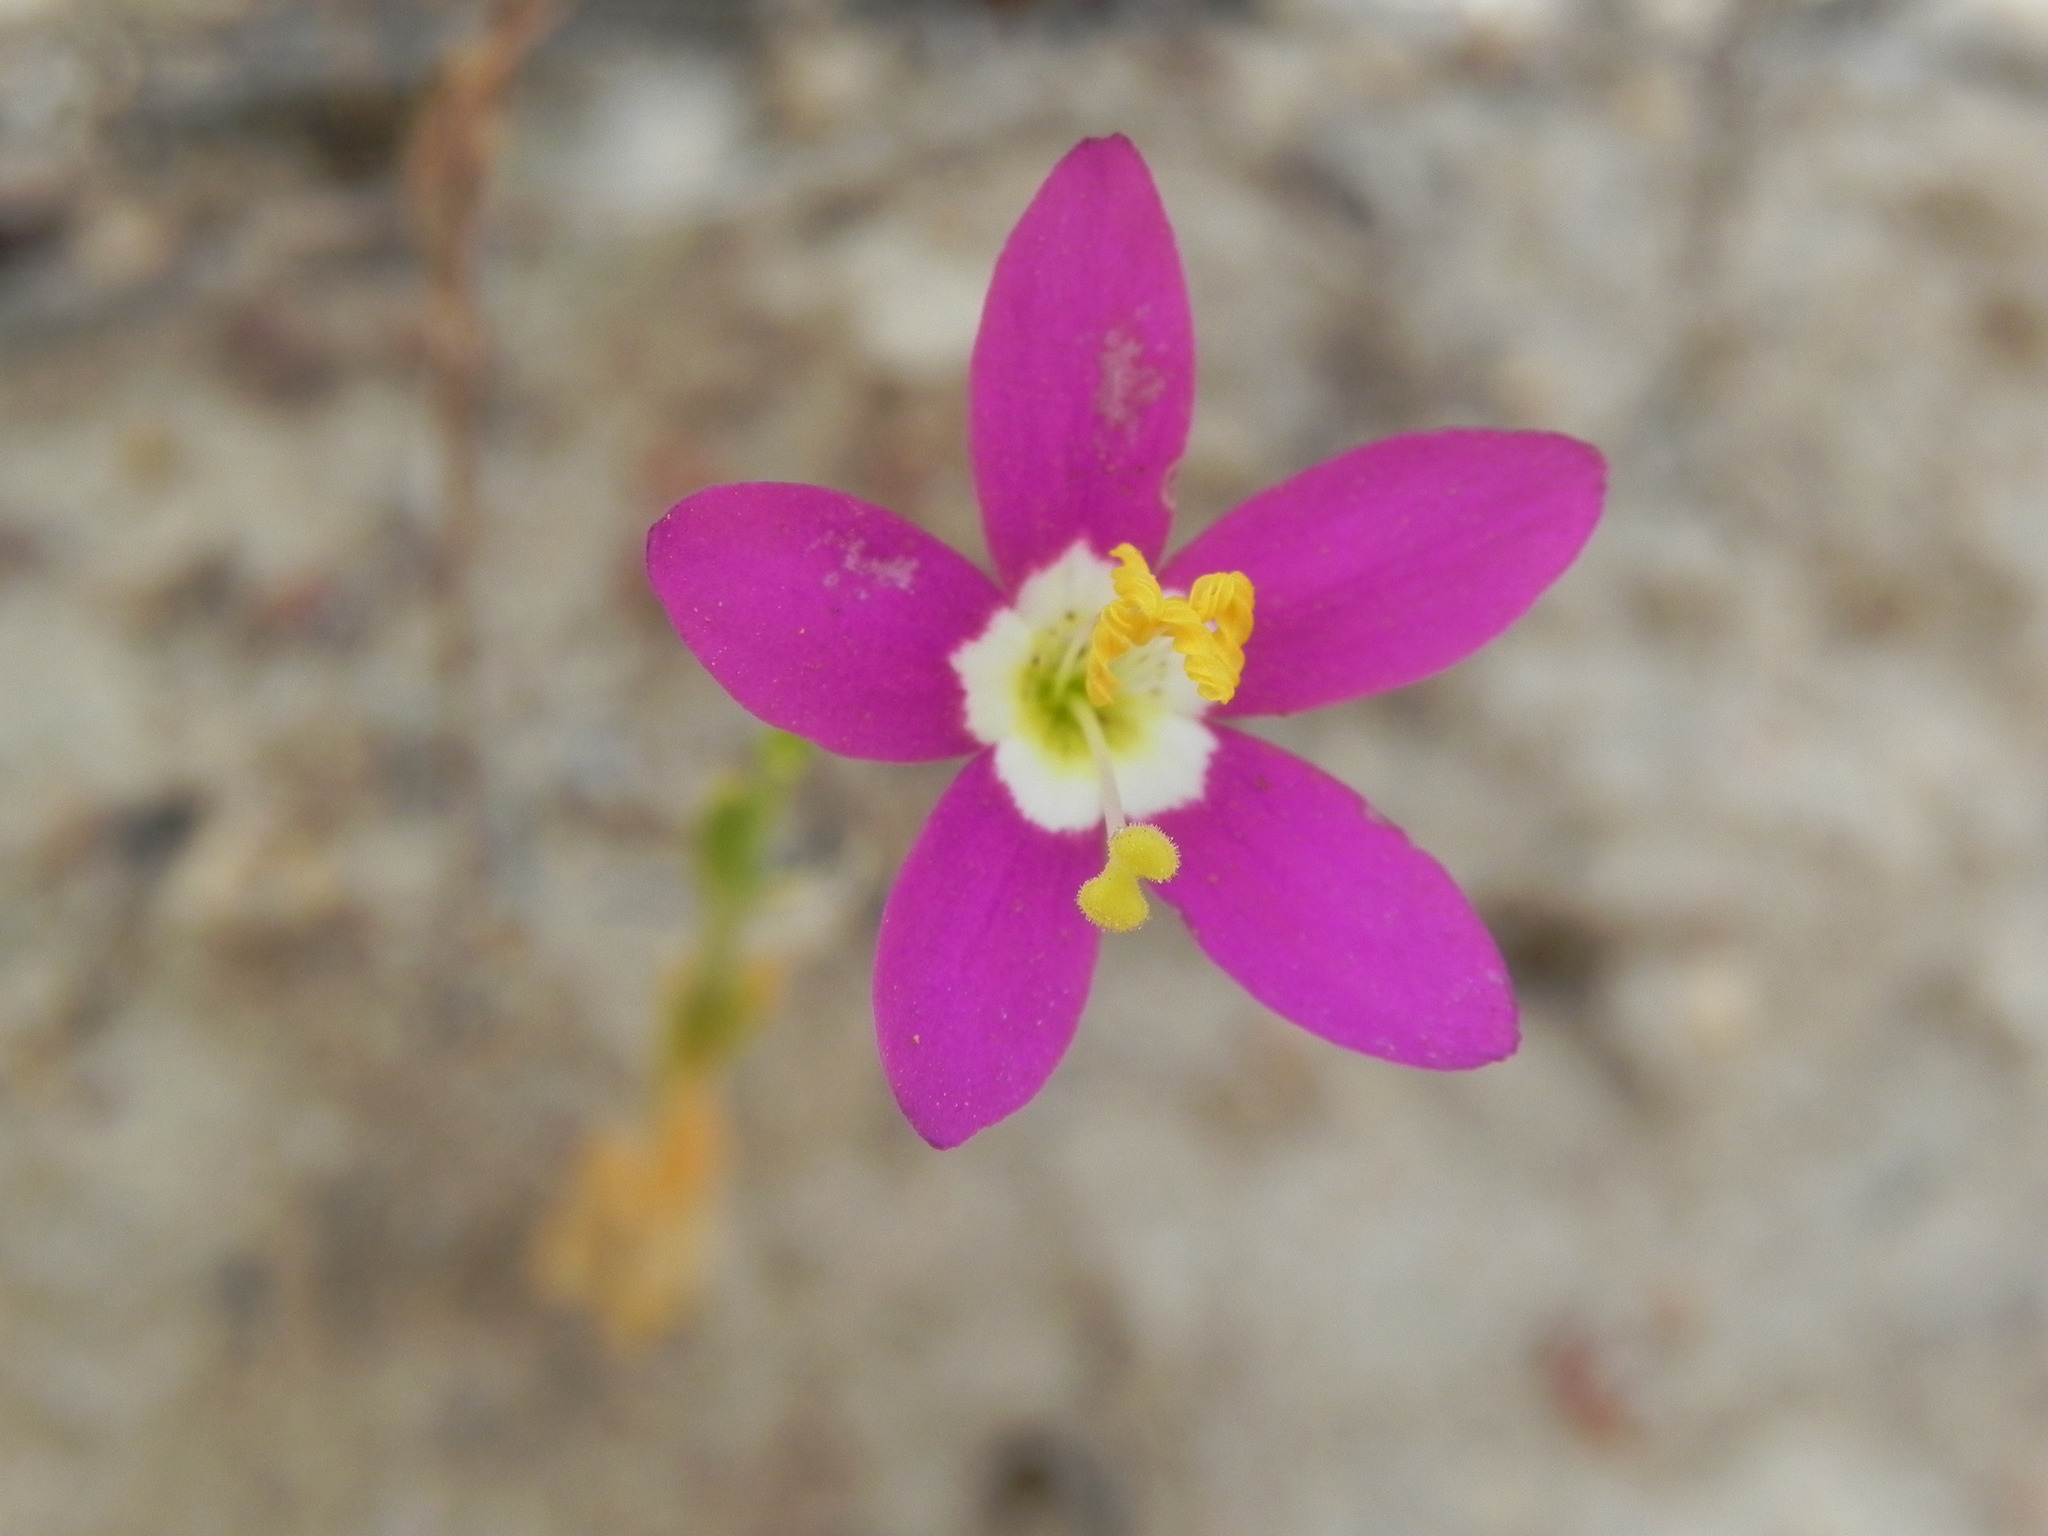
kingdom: Plantae
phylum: Tracheophyta
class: Magnoliopsida
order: Gentianales
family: Gentianaceae
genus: Zeltnera
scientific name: Zeltnera venusta
